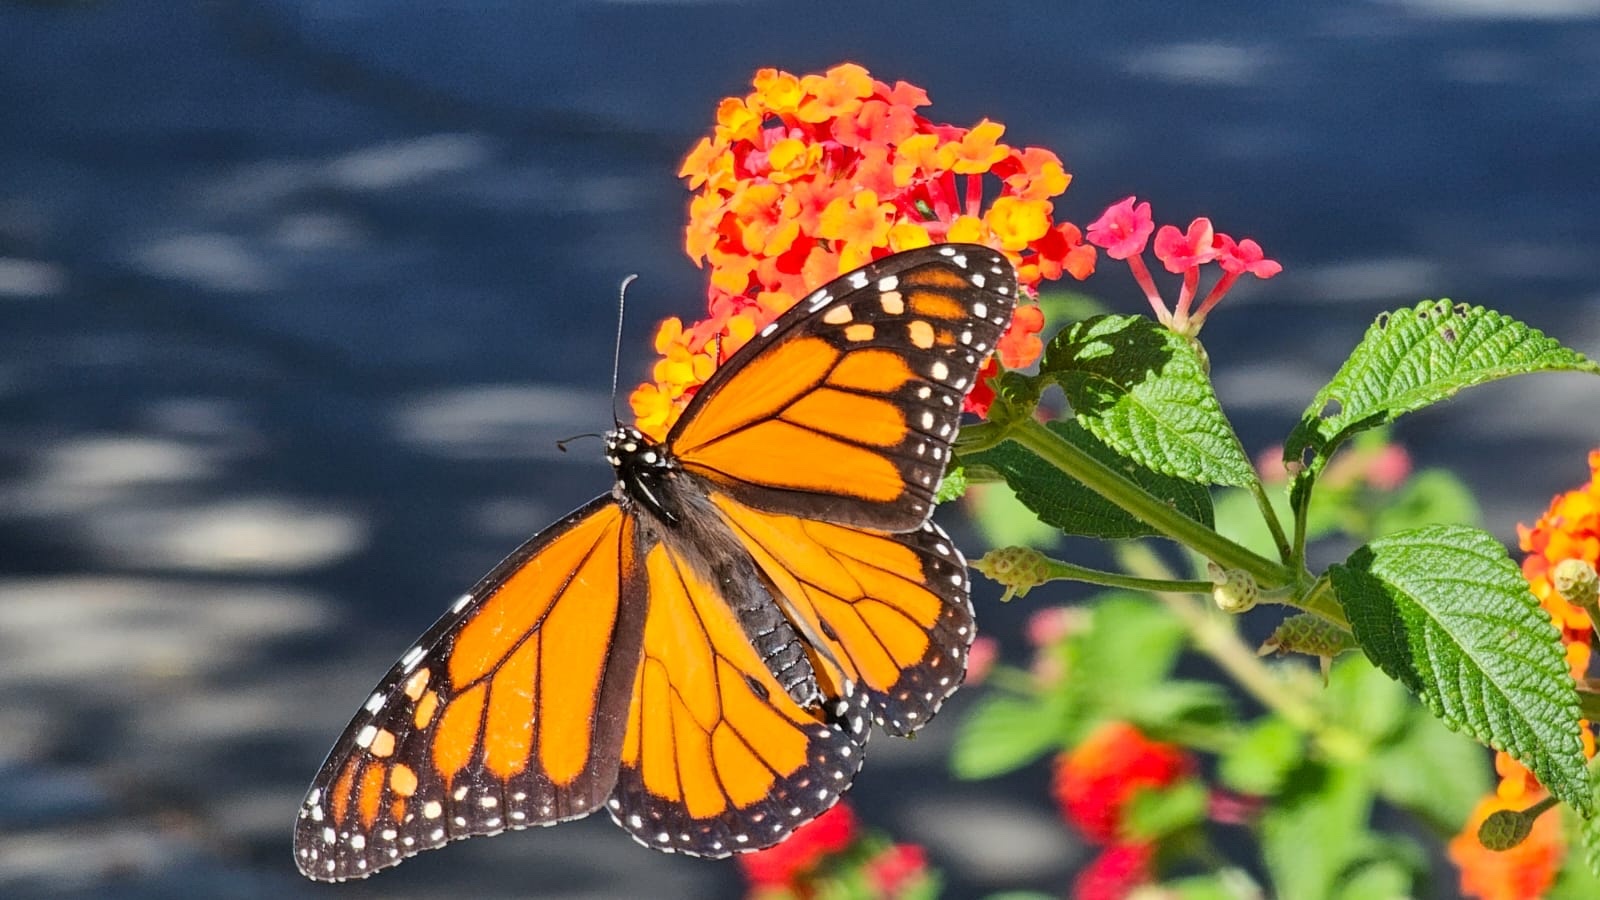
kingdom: Animalia
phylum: Arthropoda
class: Insecta
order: Lepidoptera
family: Nymphalidae
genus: Danaus
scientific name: Danaus plexippus
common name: Monarch
